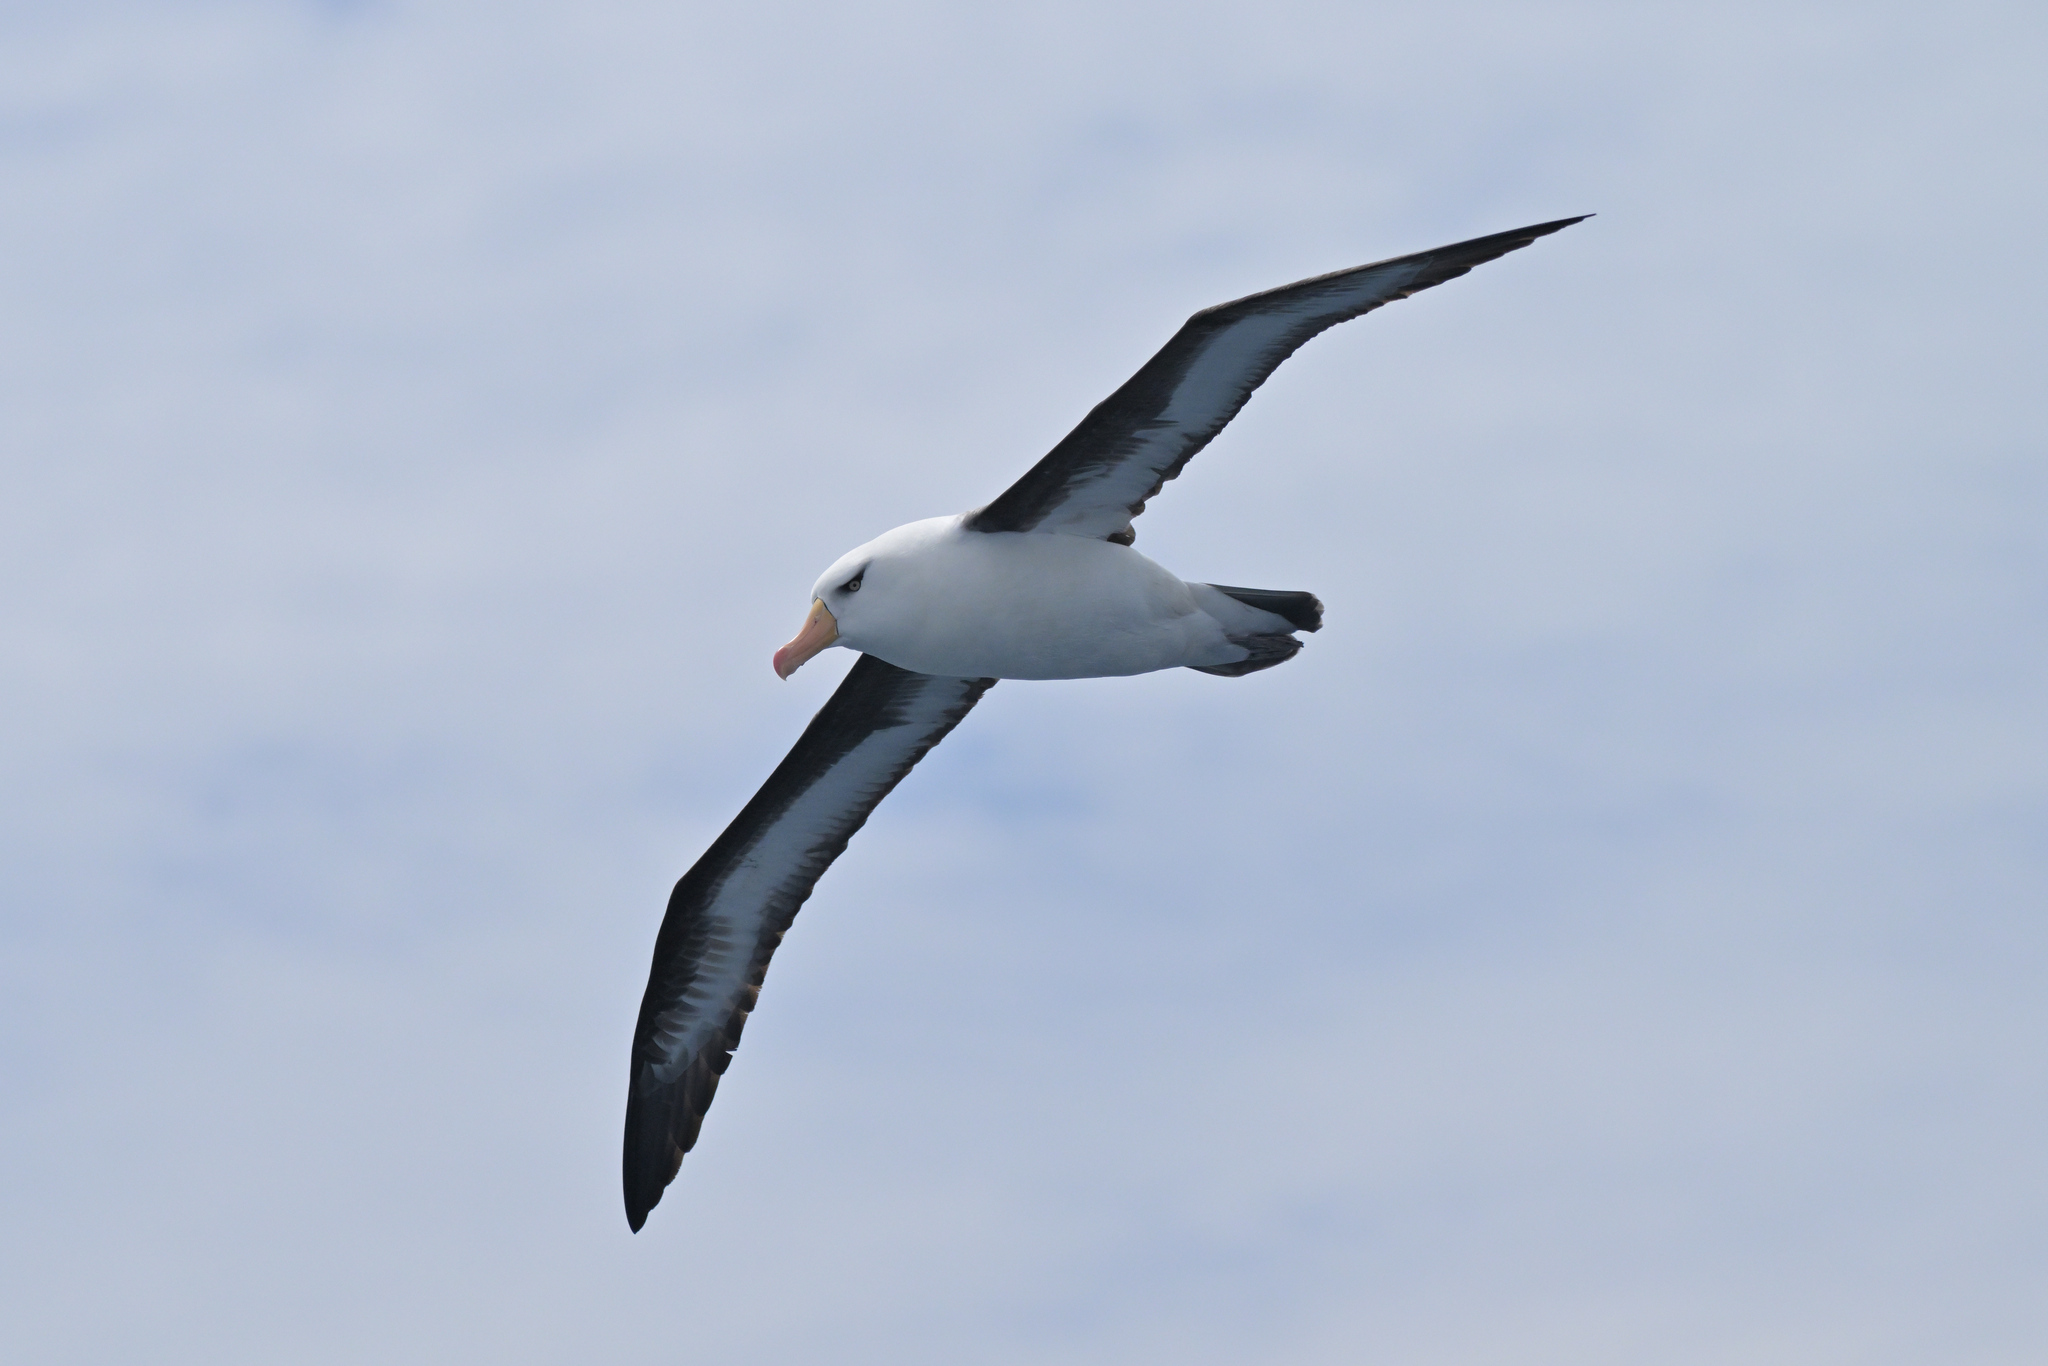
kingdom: Animalia
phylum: Chordata
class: Aves
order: Procellariiformes
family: Diomedeidae
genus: Thalassarche
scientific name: Thalassarche impavida
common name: Campbell albatross
